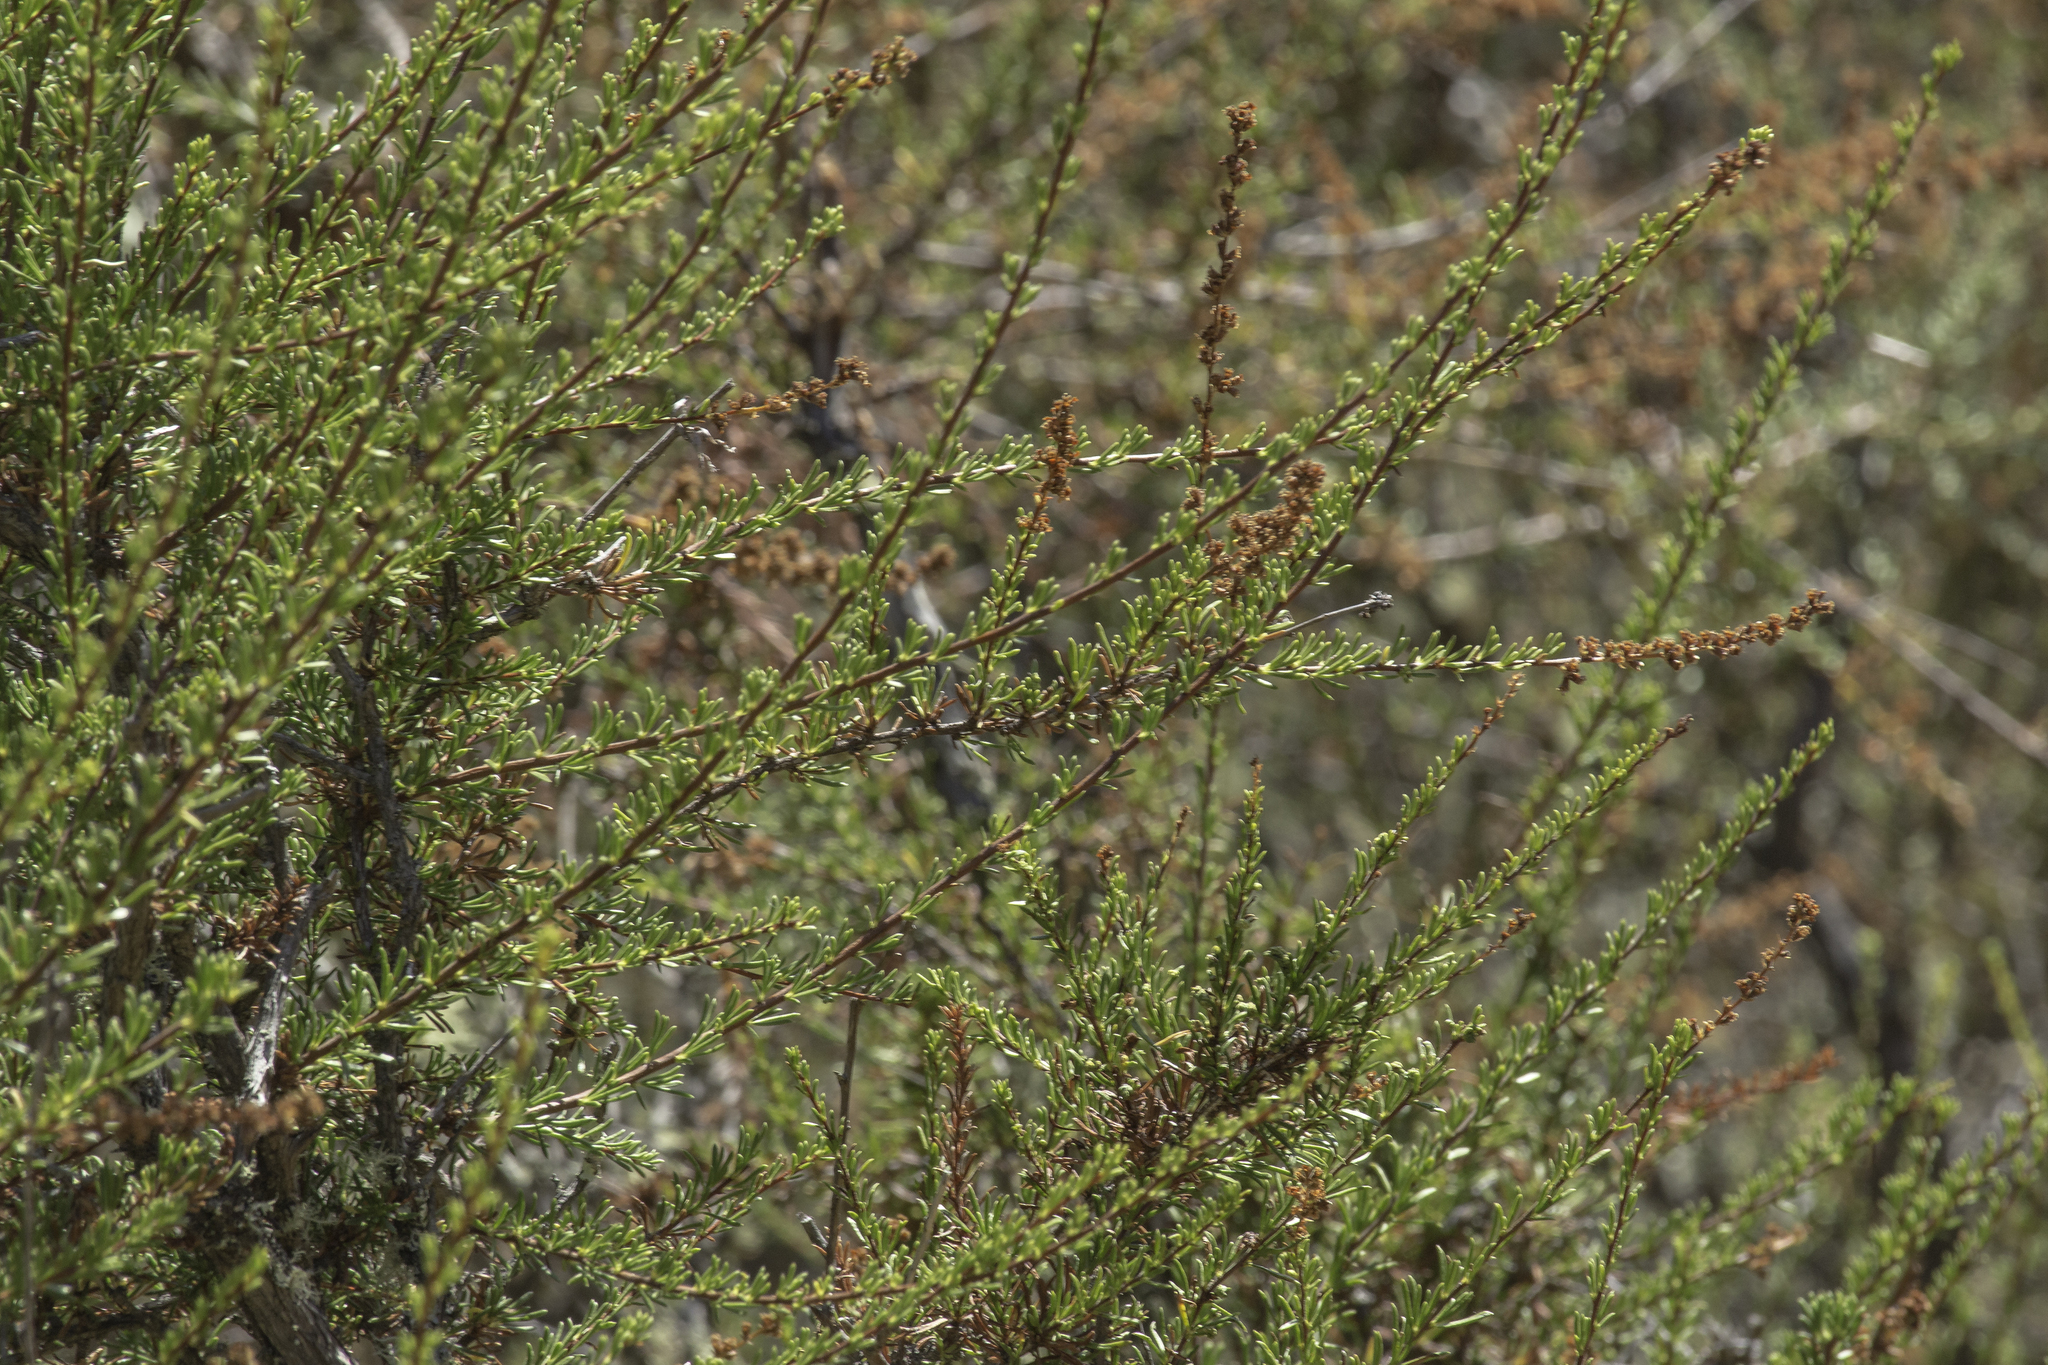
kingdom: Plantae
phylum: Tracheophyta
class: Magnoliopsida
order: Rosales
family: Rosaceae
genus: Adenostoma
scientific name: Adenostoma fasciculatum
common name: Chamise
